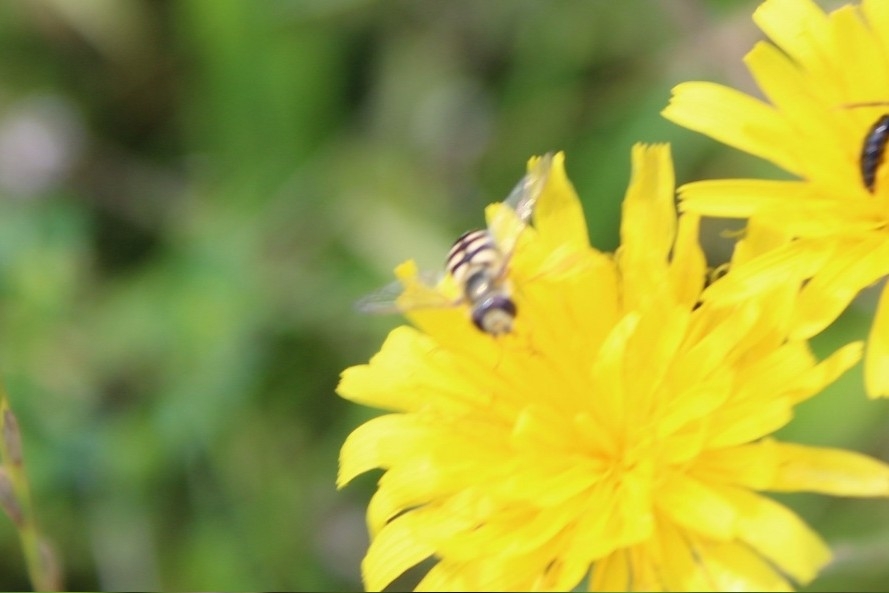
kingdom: Animalia
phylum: Arthropoda
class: Insecta
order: Diptera
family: Syrphidae
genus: Eupeodes
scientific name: Eupeodes corollae
